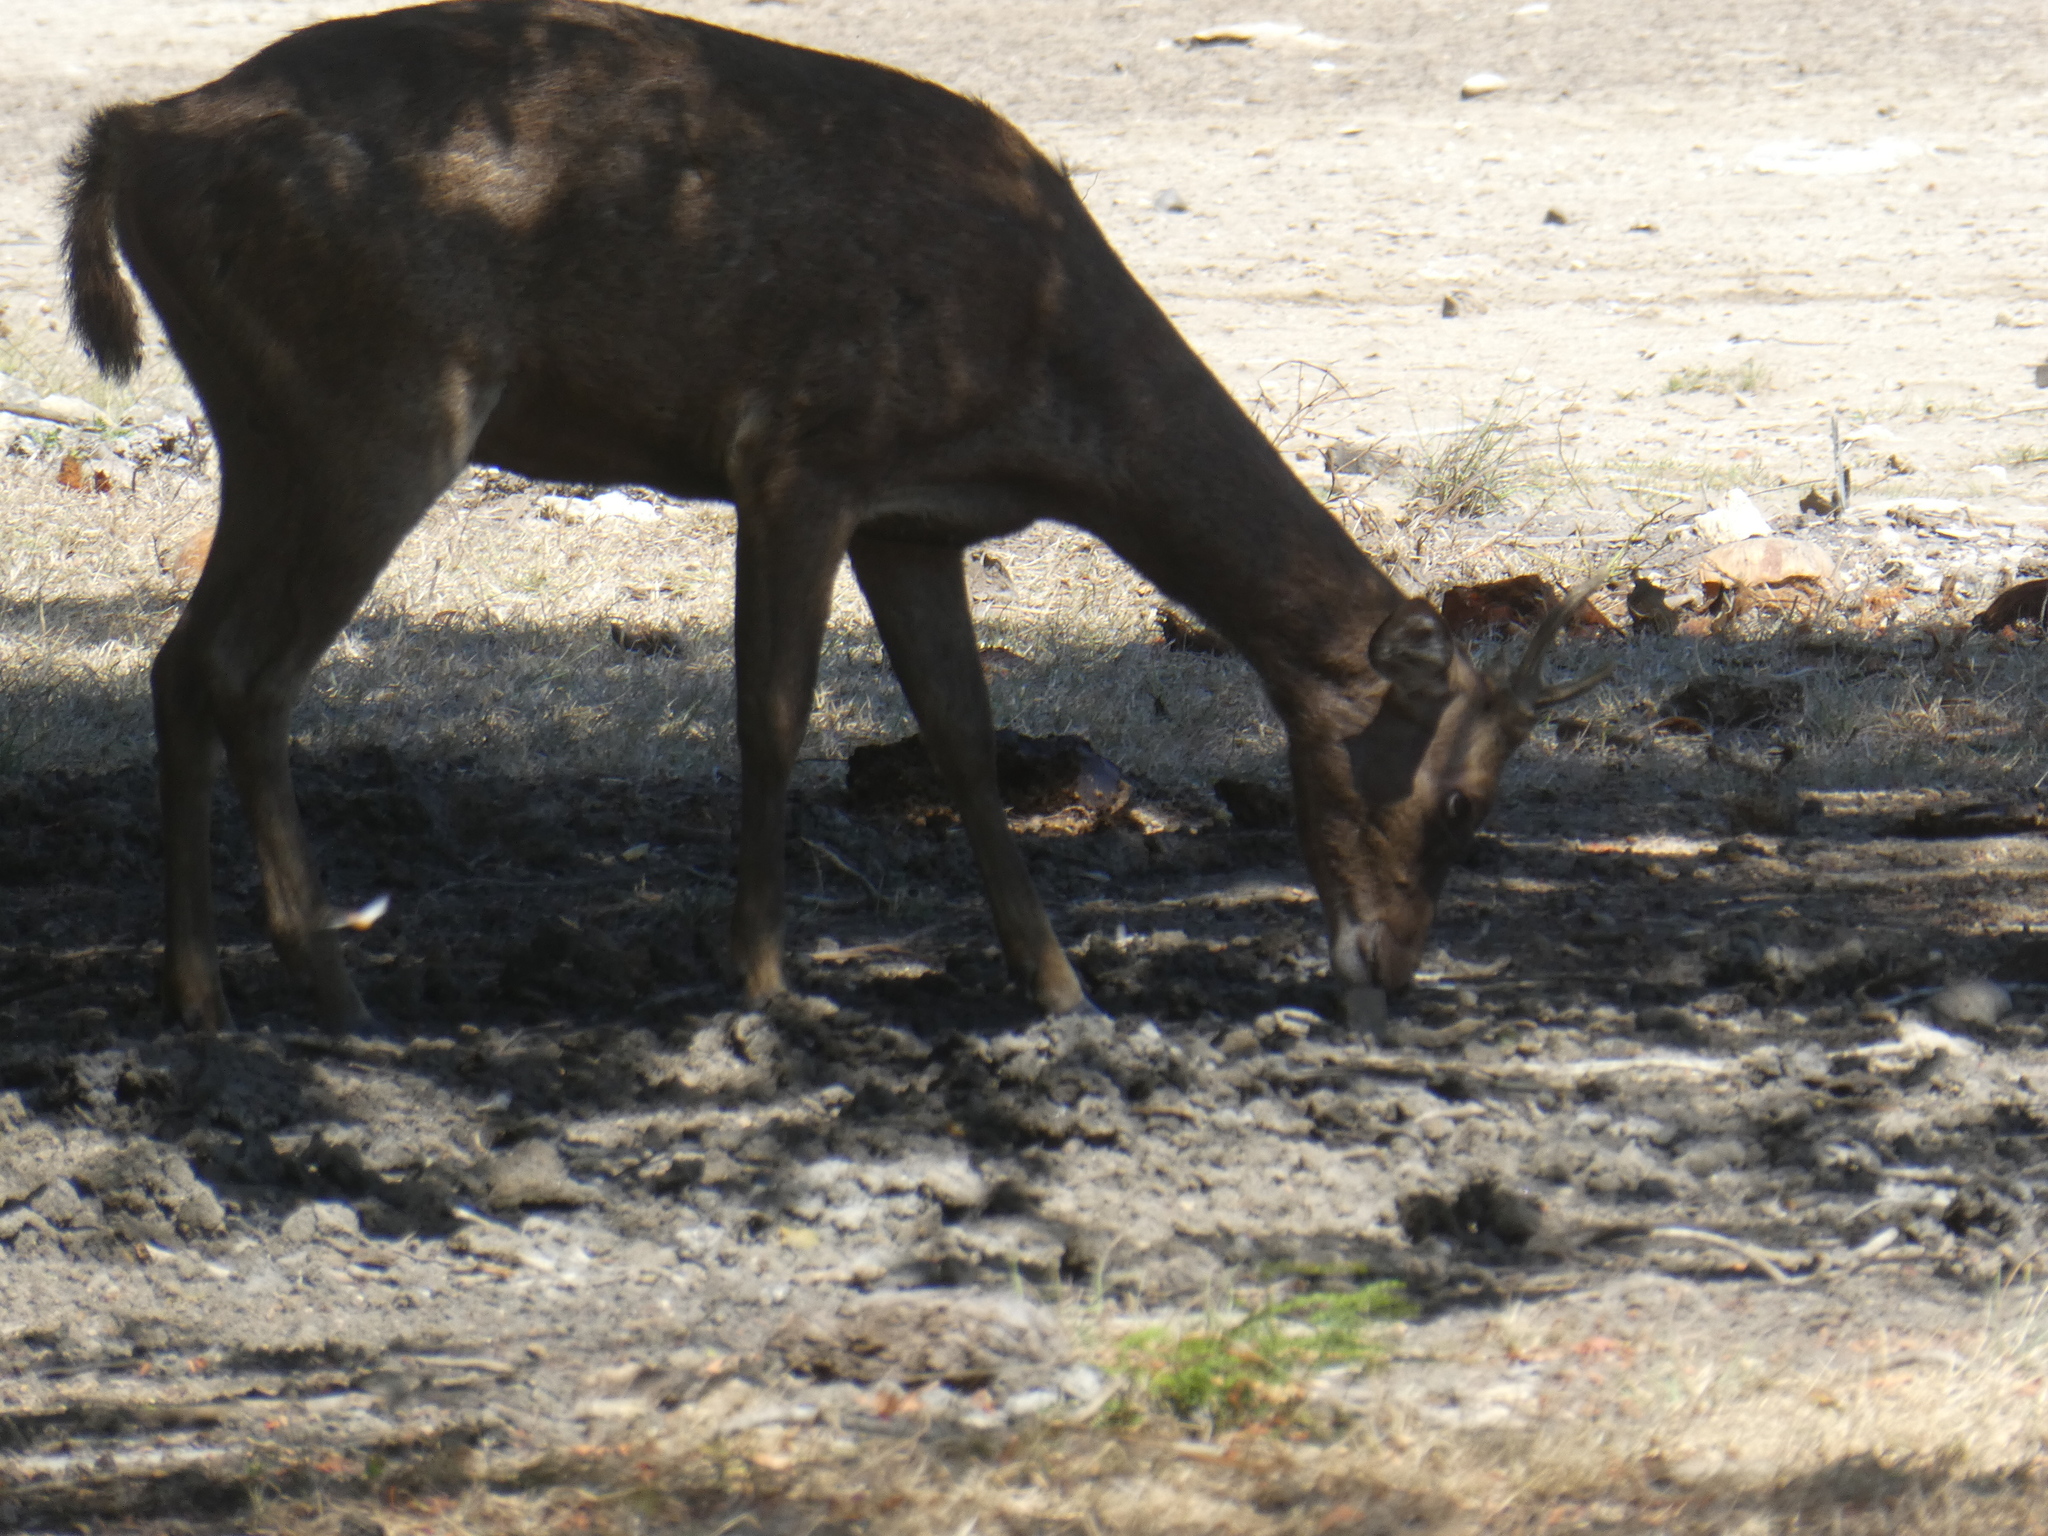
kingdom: Animalia
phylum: Chordata
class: Mammalia
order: Artiodactyla
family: Cervidae
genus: Rusa
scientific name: Rusa timorensis
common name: Javan rusa
